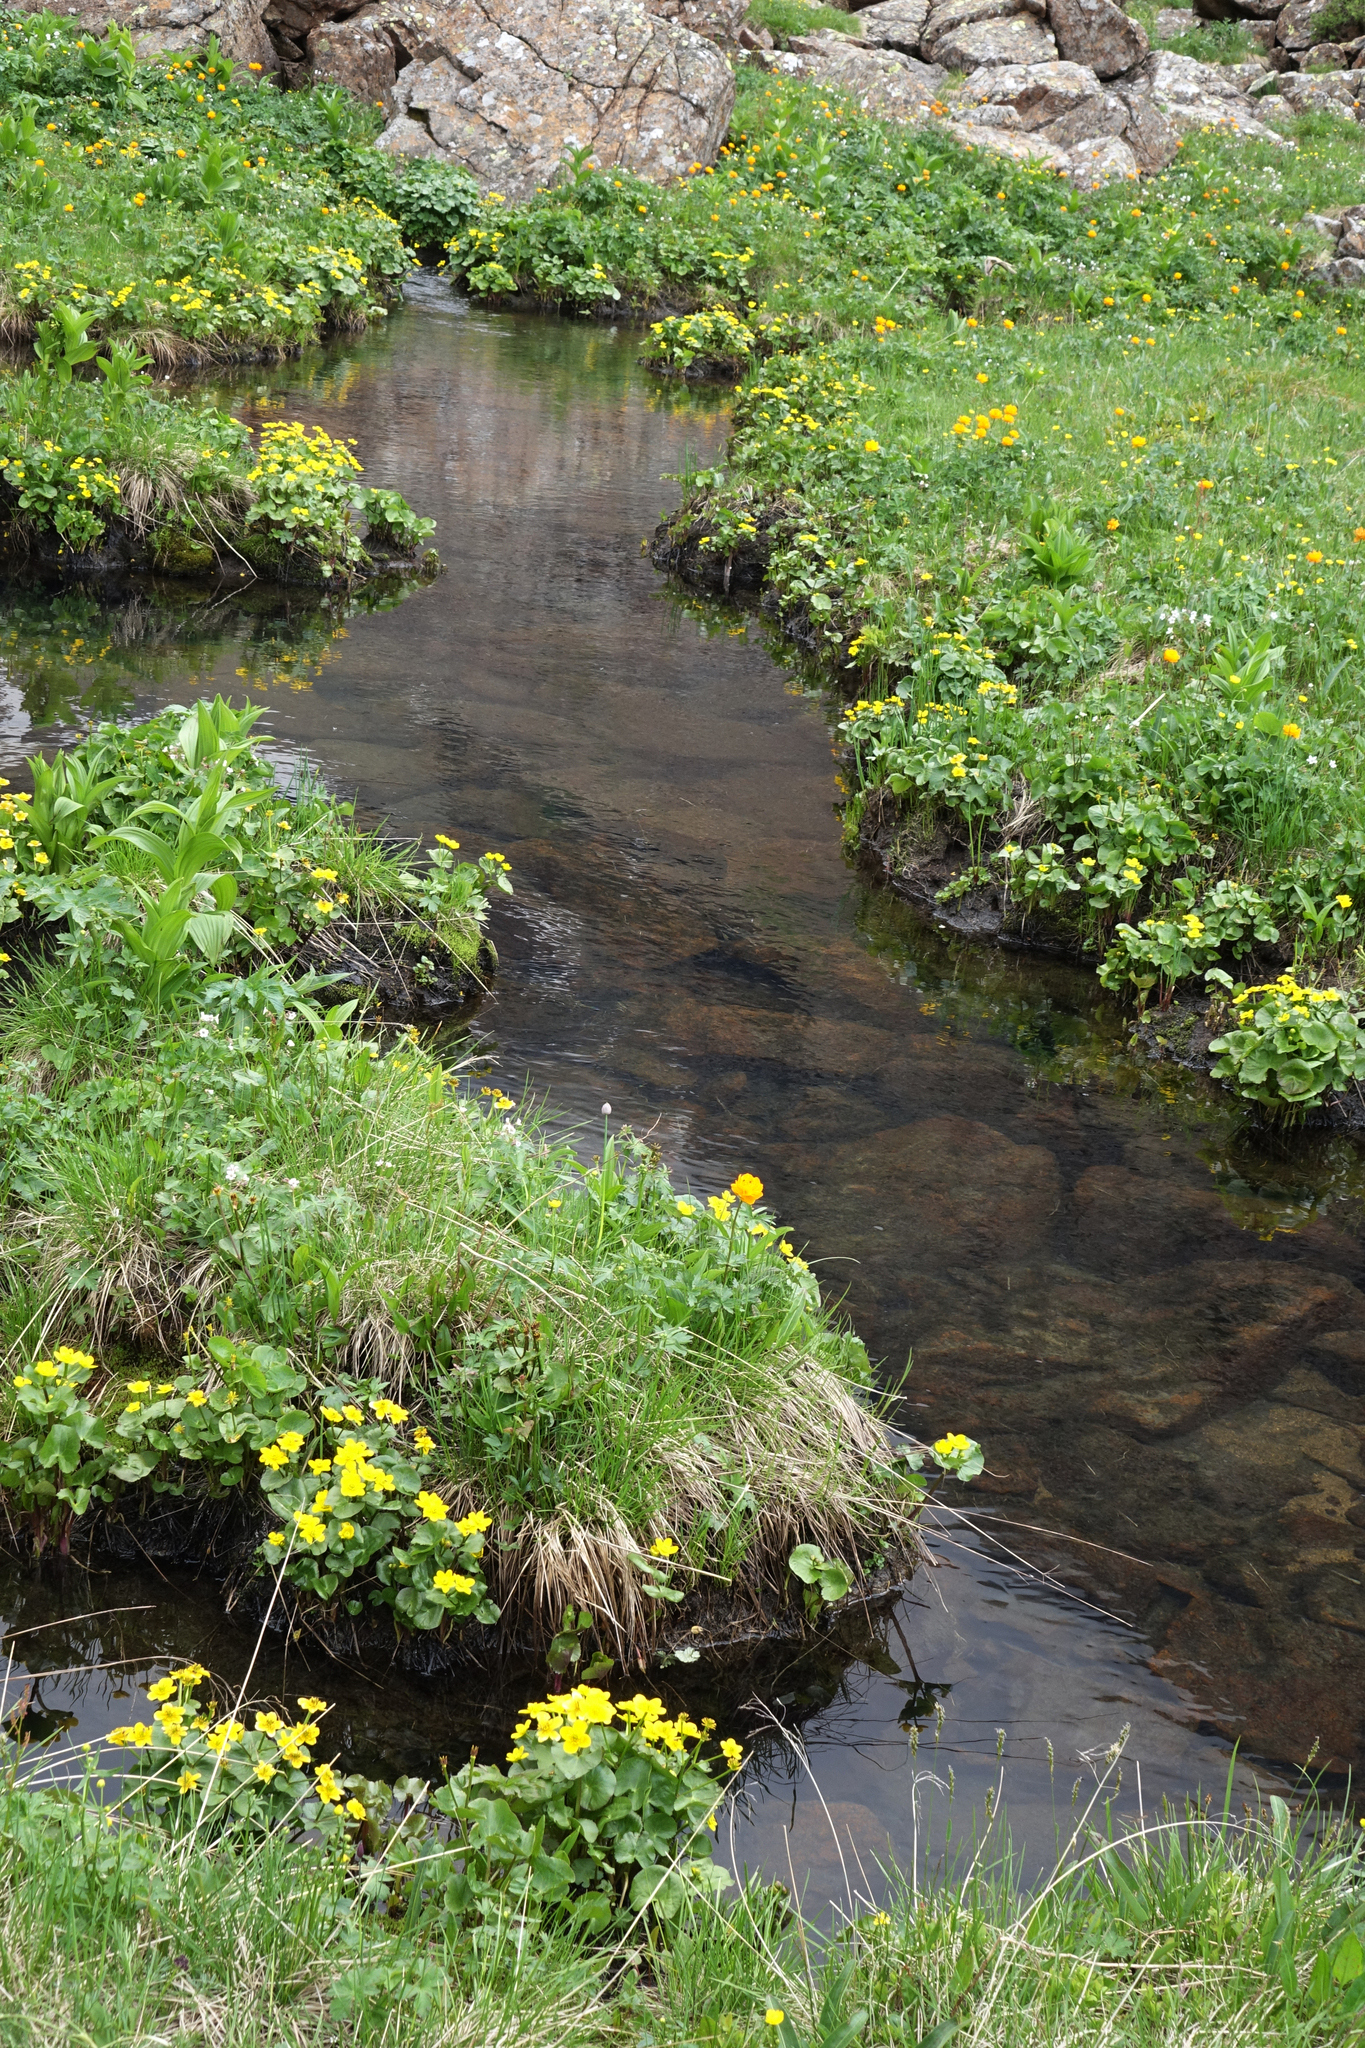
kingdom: Plantae
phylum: Tracheophyta
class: Magnoliopsida
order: Ranunculales
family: Ranunculaceae
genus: Caltha
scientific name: Caltha palustris
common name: Marsh marigold
